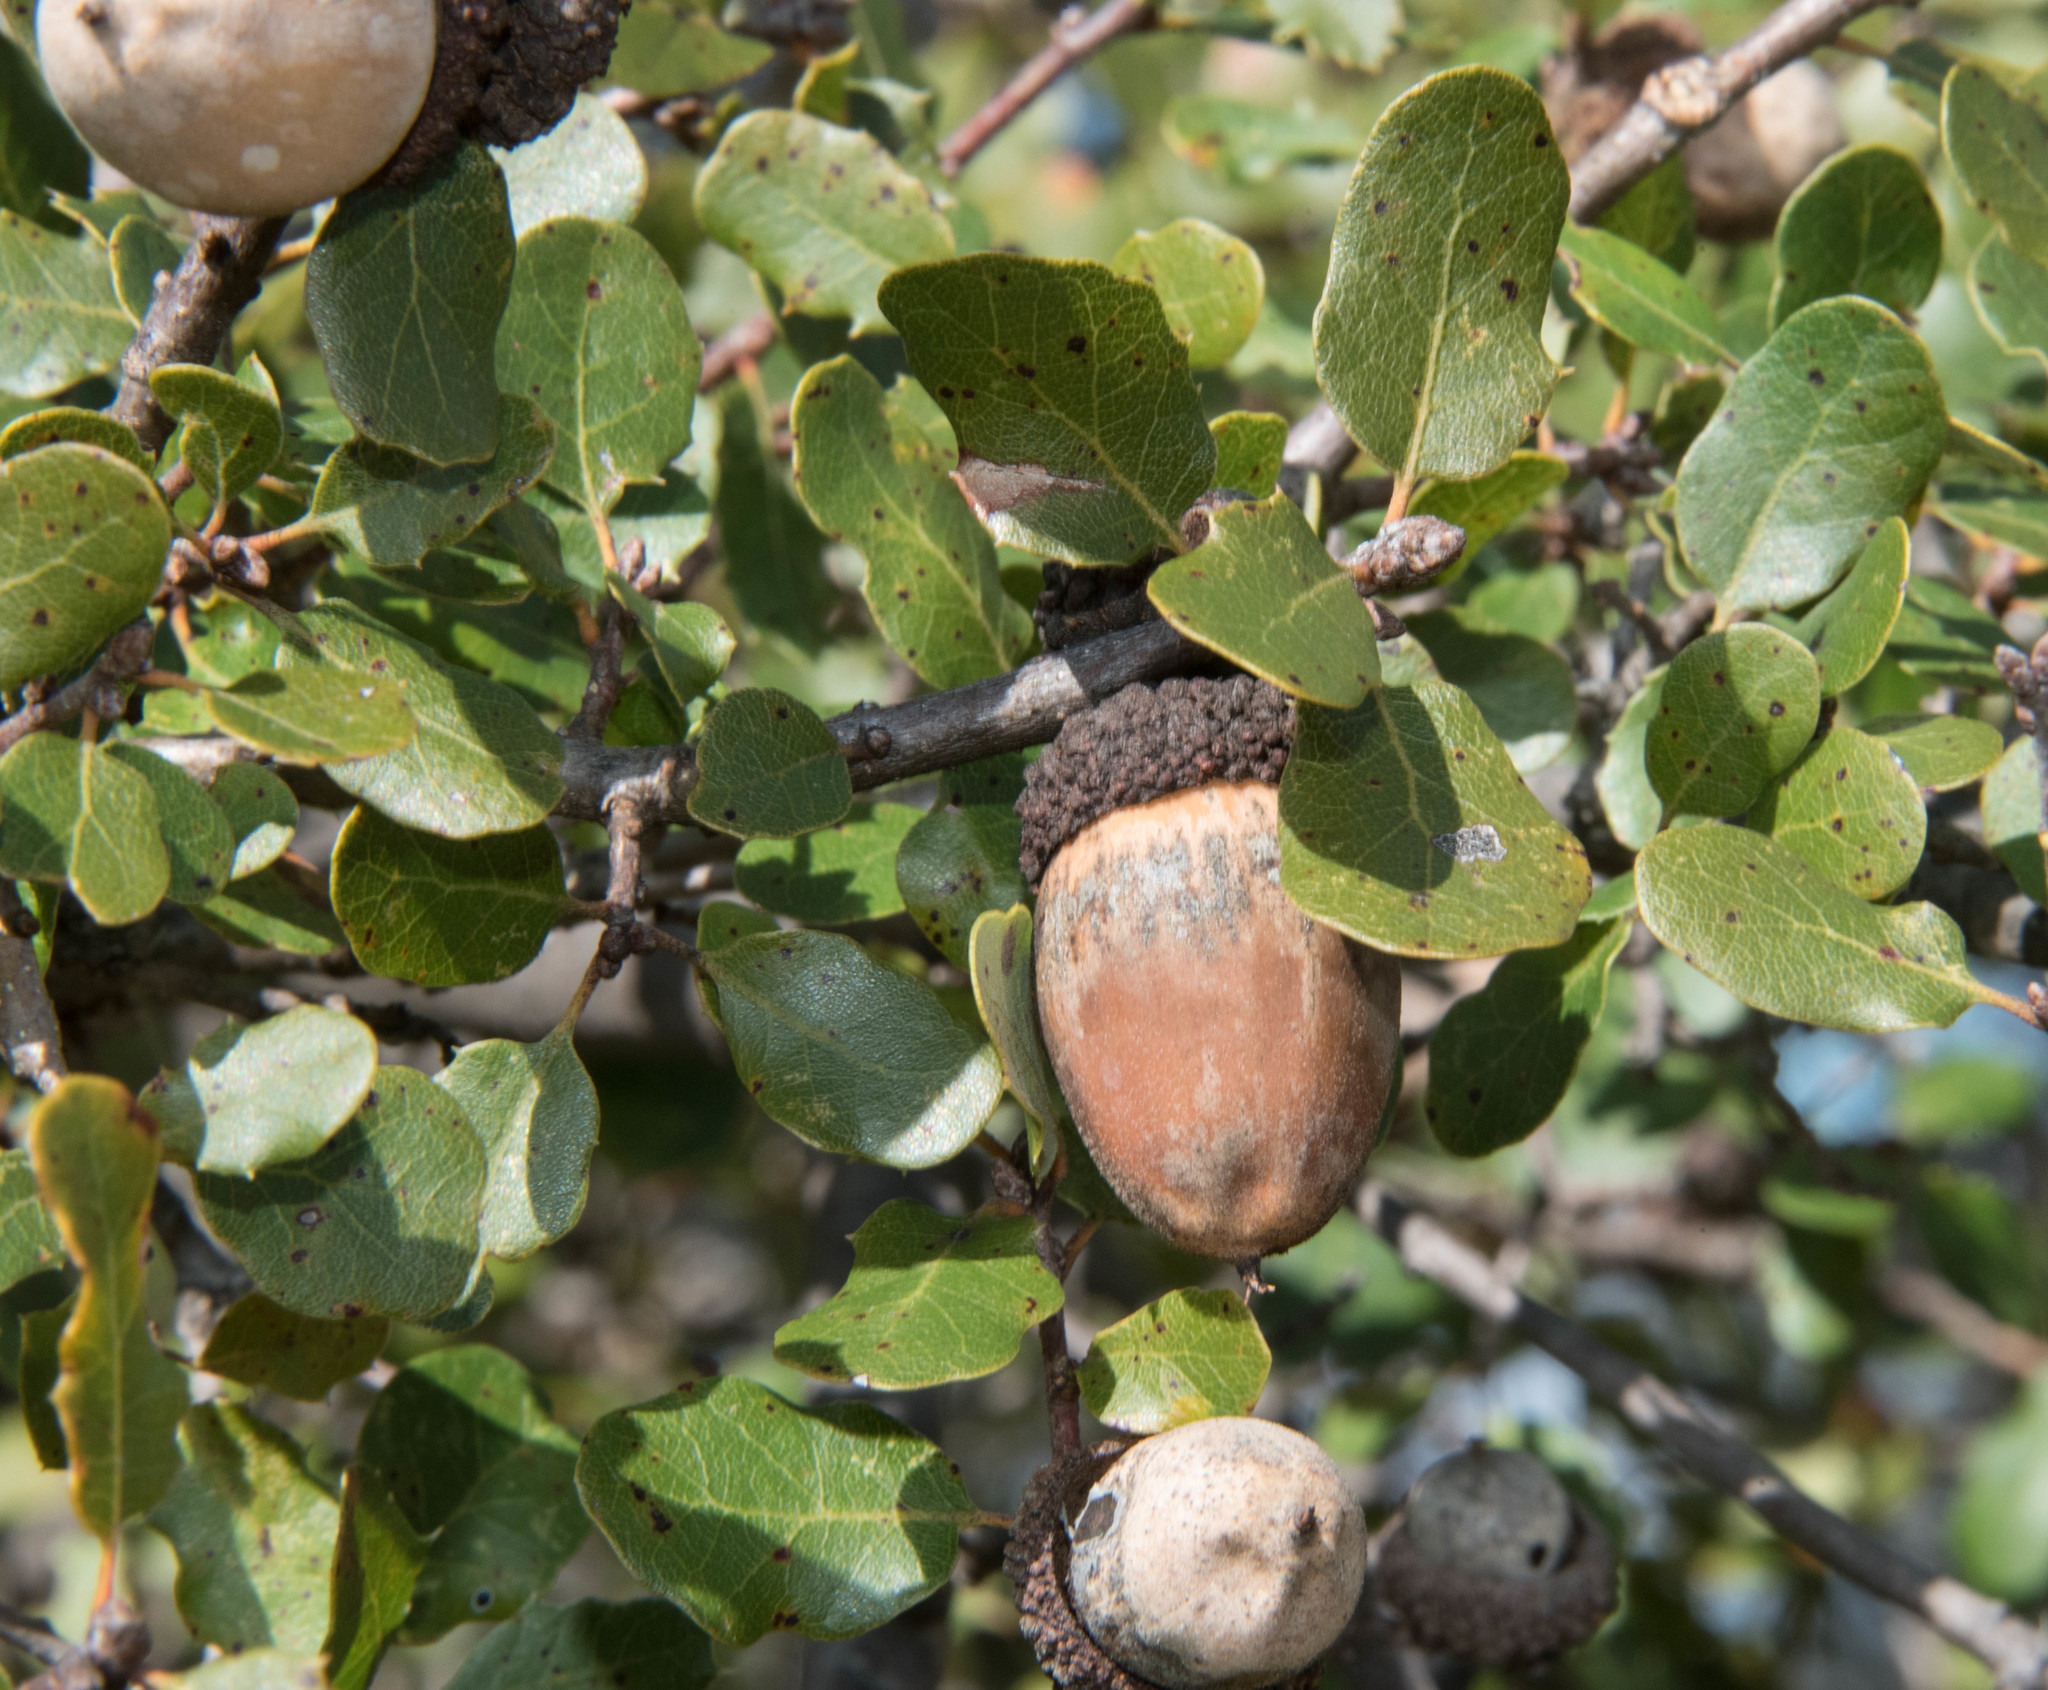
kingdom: Plantae
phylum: Tracheophyta
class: Magnoliopsida
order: Fagales
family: Fagaceae
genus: Quercus
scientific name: Quercus berberidifolia
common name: California scrub oak
